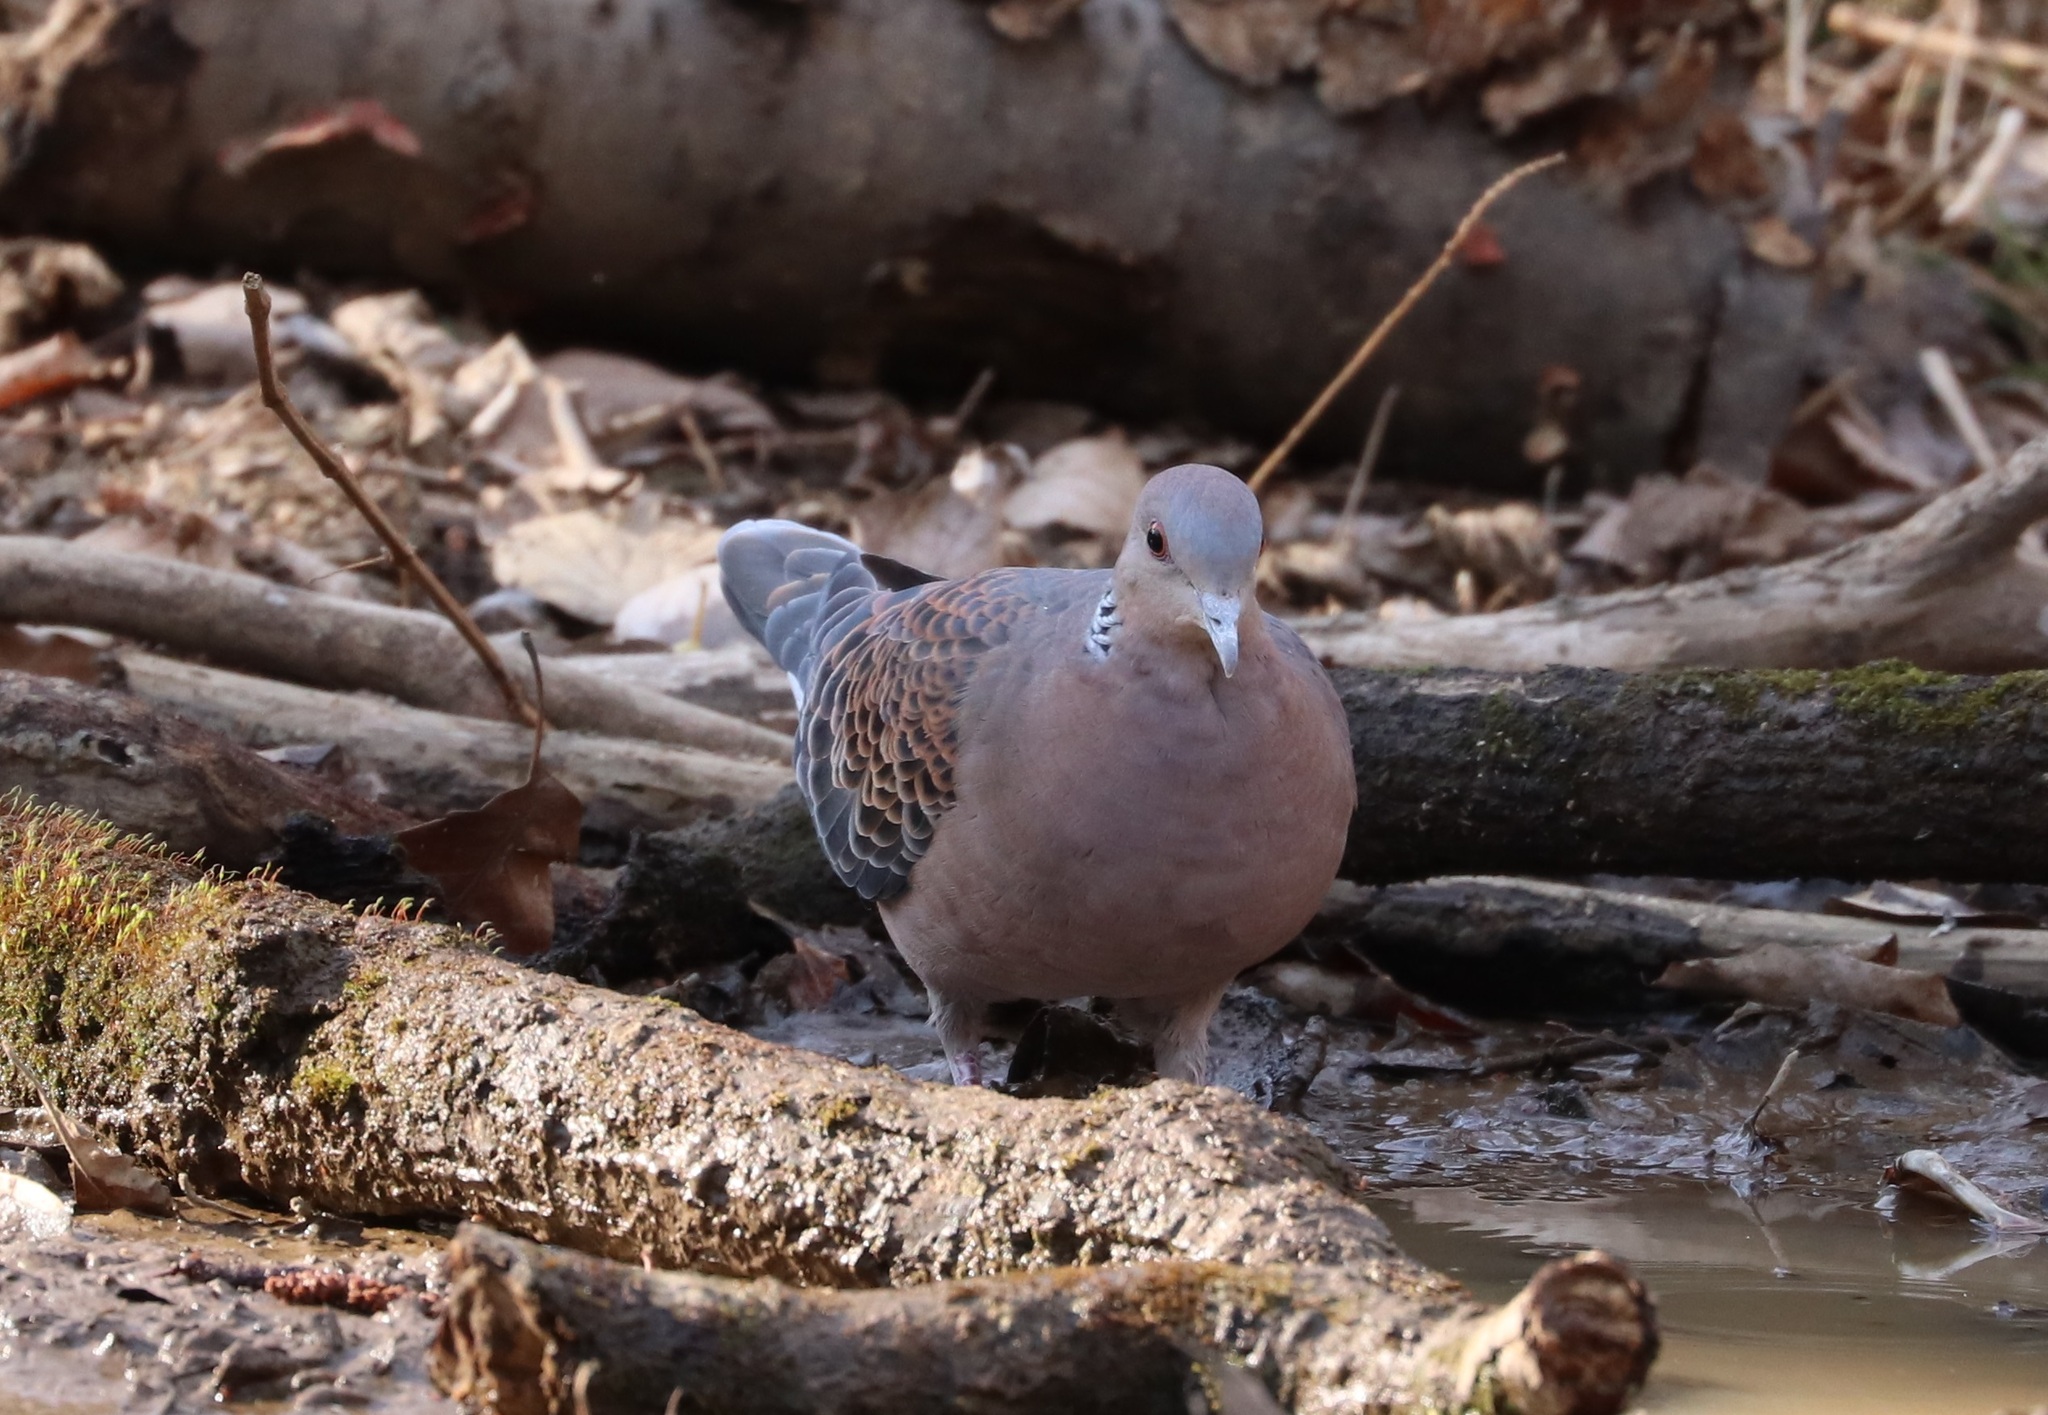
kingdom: Animalia
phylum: Chordata
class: Aves
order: Columbiformes
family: Columbidae
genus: Streptopelia
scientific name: Streptopelia orientalis
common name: Oriental turtle dove
